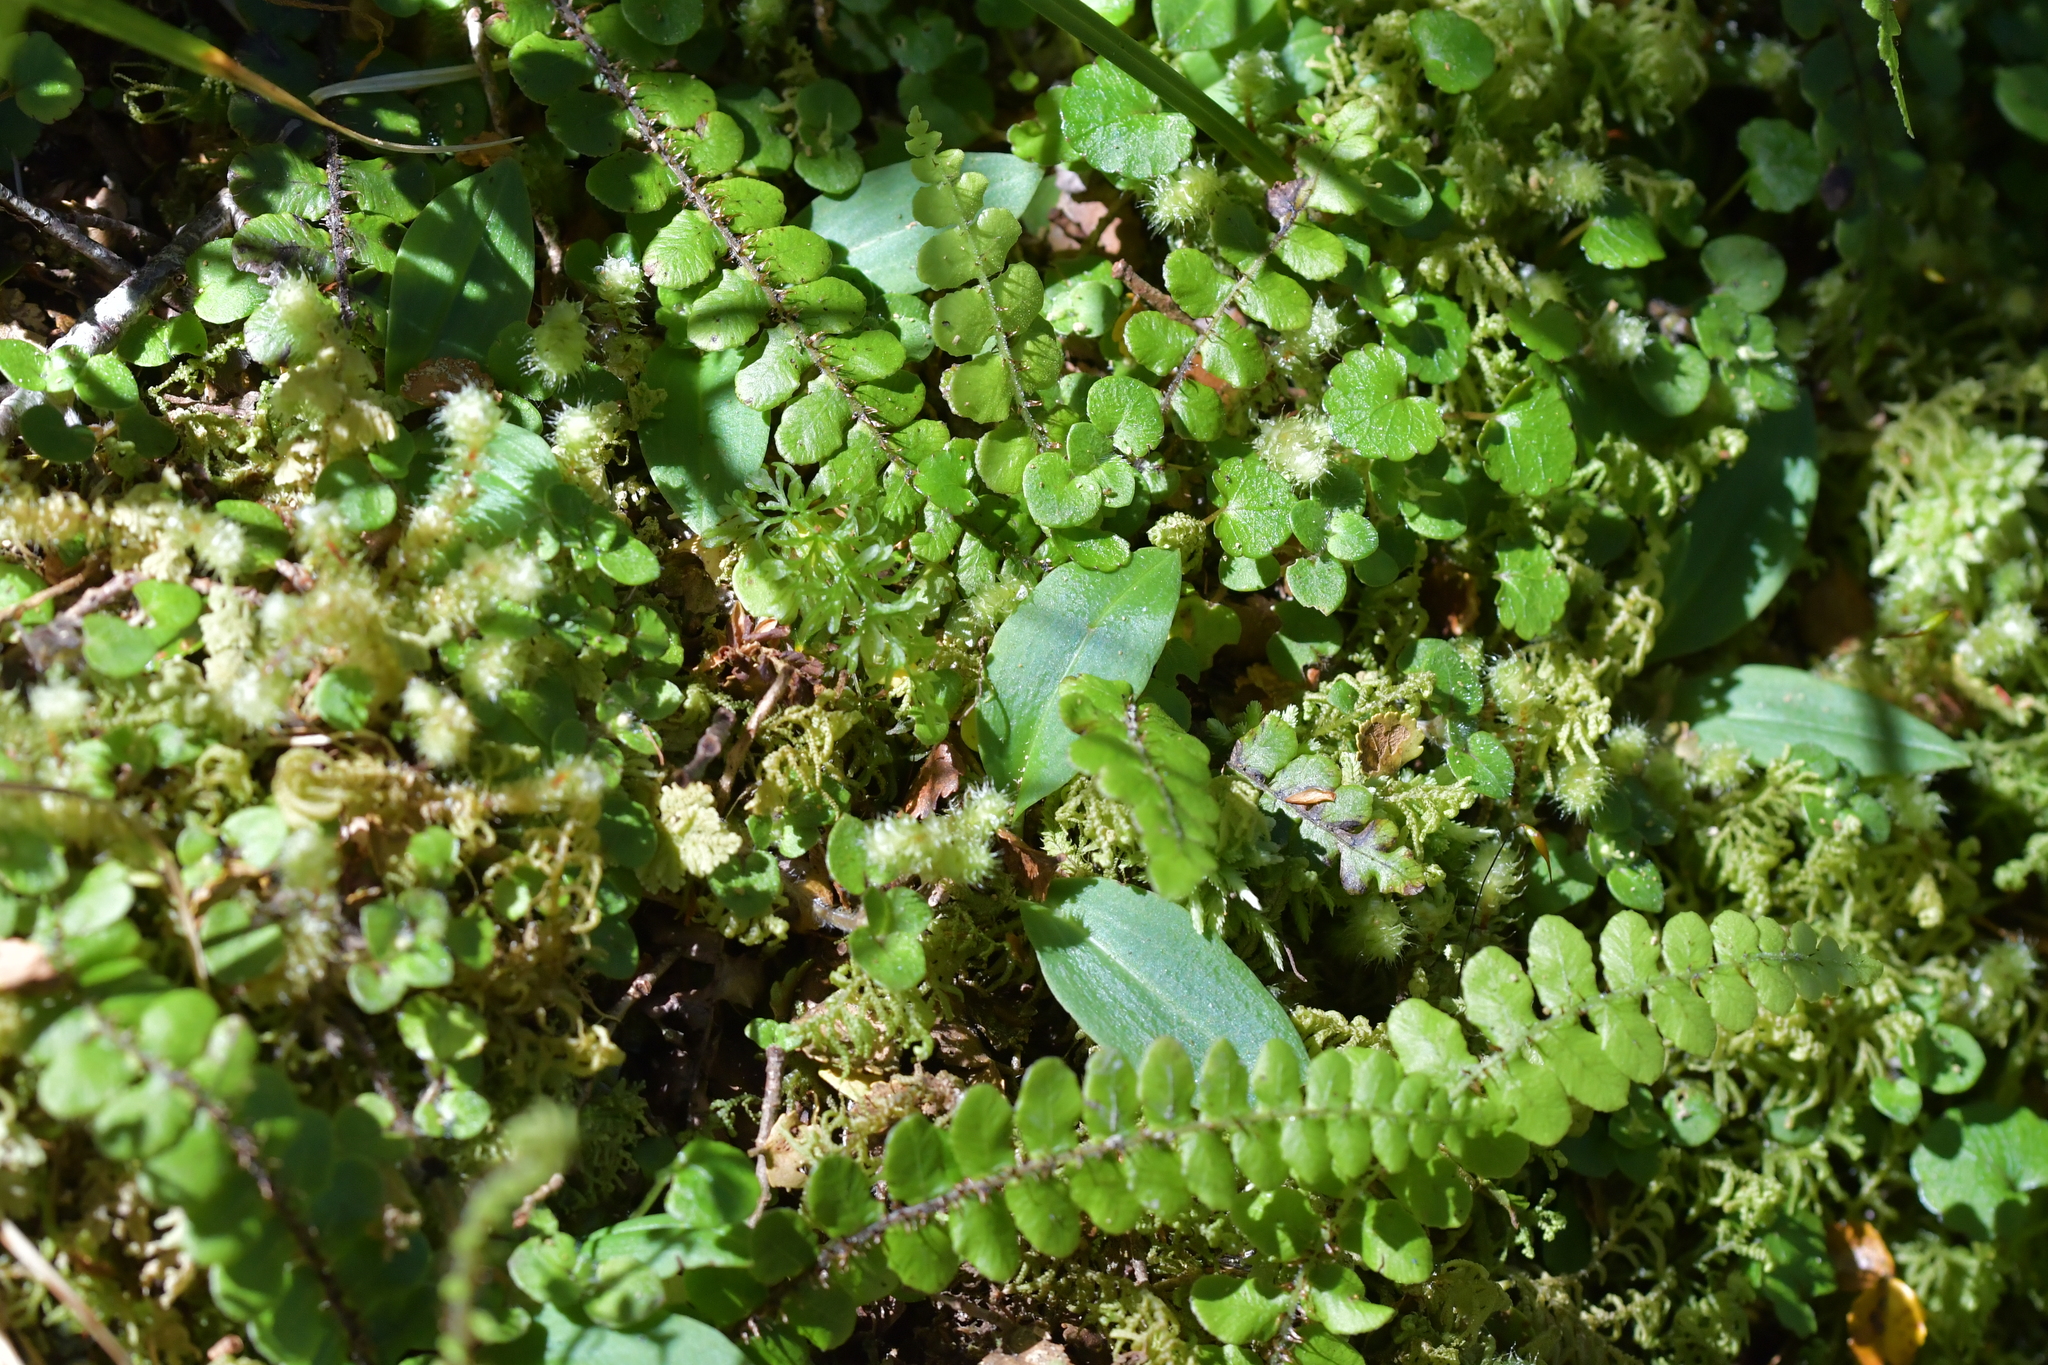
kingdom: Plantae
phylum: Tracheophyta
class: Liliopsida
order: Asparagales
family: Orchidaceae
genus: Chiloglottis
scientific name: Chiloglottis cornuta
